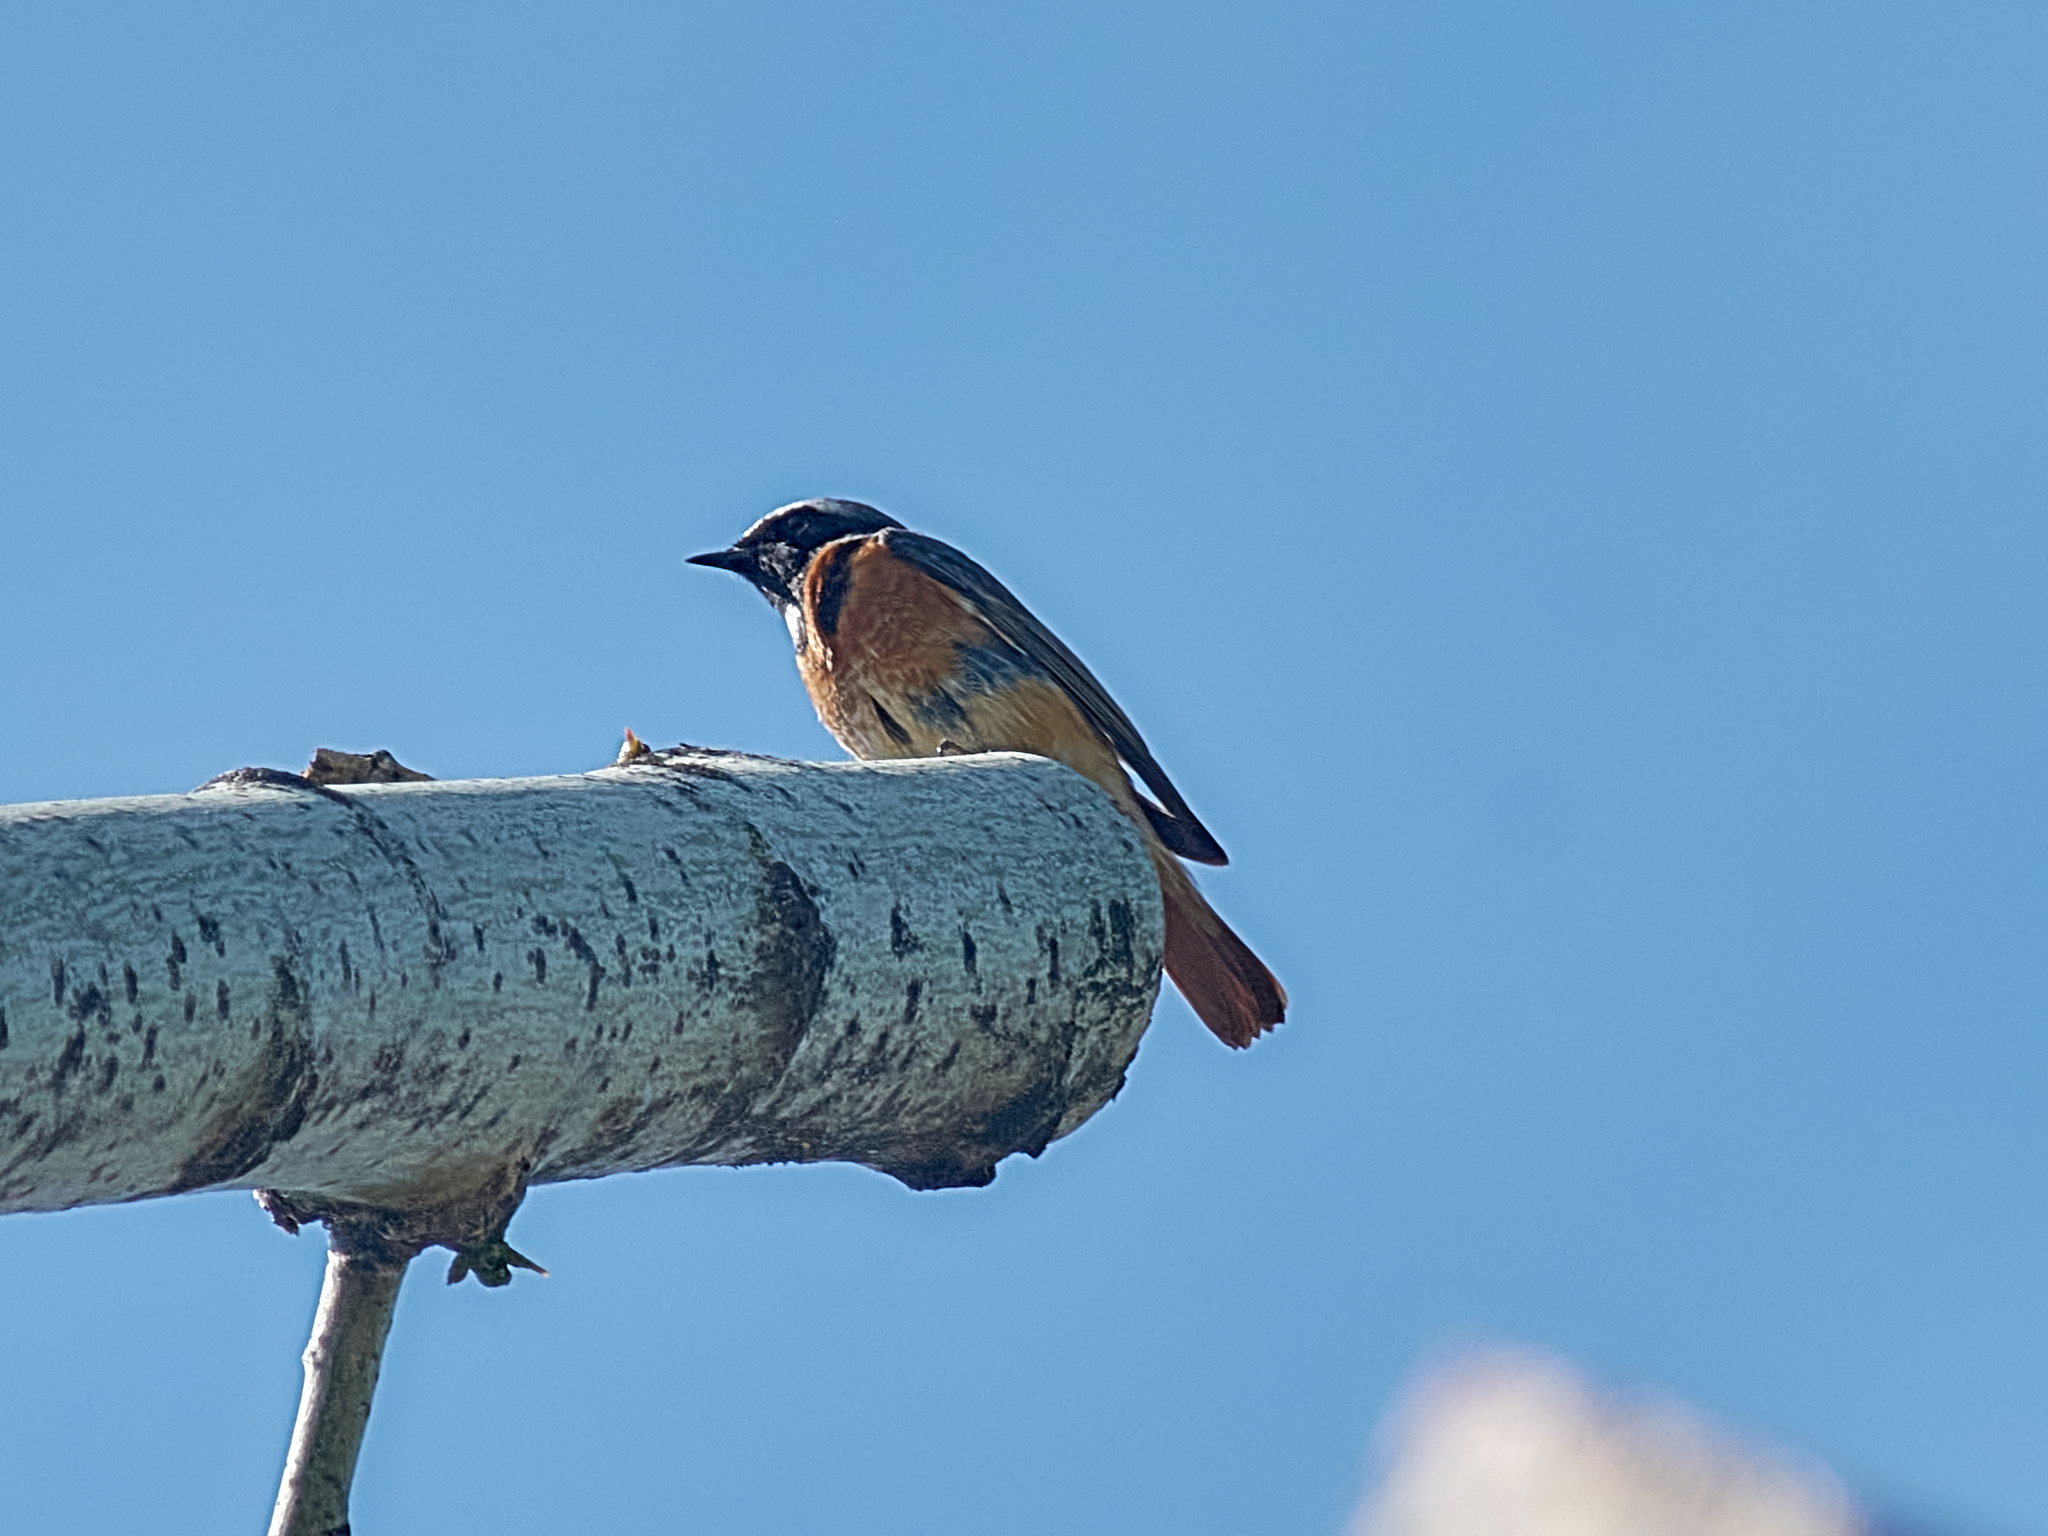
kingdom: Animalia
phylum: Chordata
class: Aves
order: Passeriformes
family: Muscicapidae
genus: Phoenicurus
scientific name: Phoenicurus phoenicurus
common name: Common redstart
